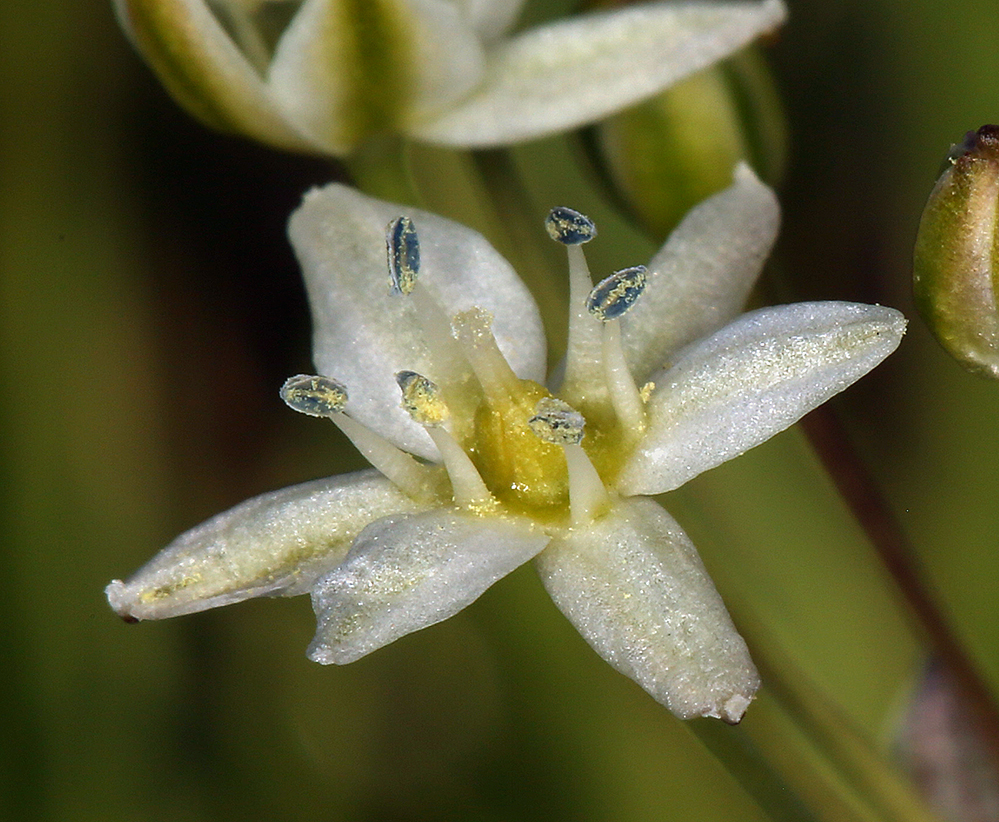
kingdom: Plantae
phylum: Tracheophyta
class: Liliopsida
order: Asparagales
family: Asparagaceae
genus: Muilla
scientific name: Muilla maritima
